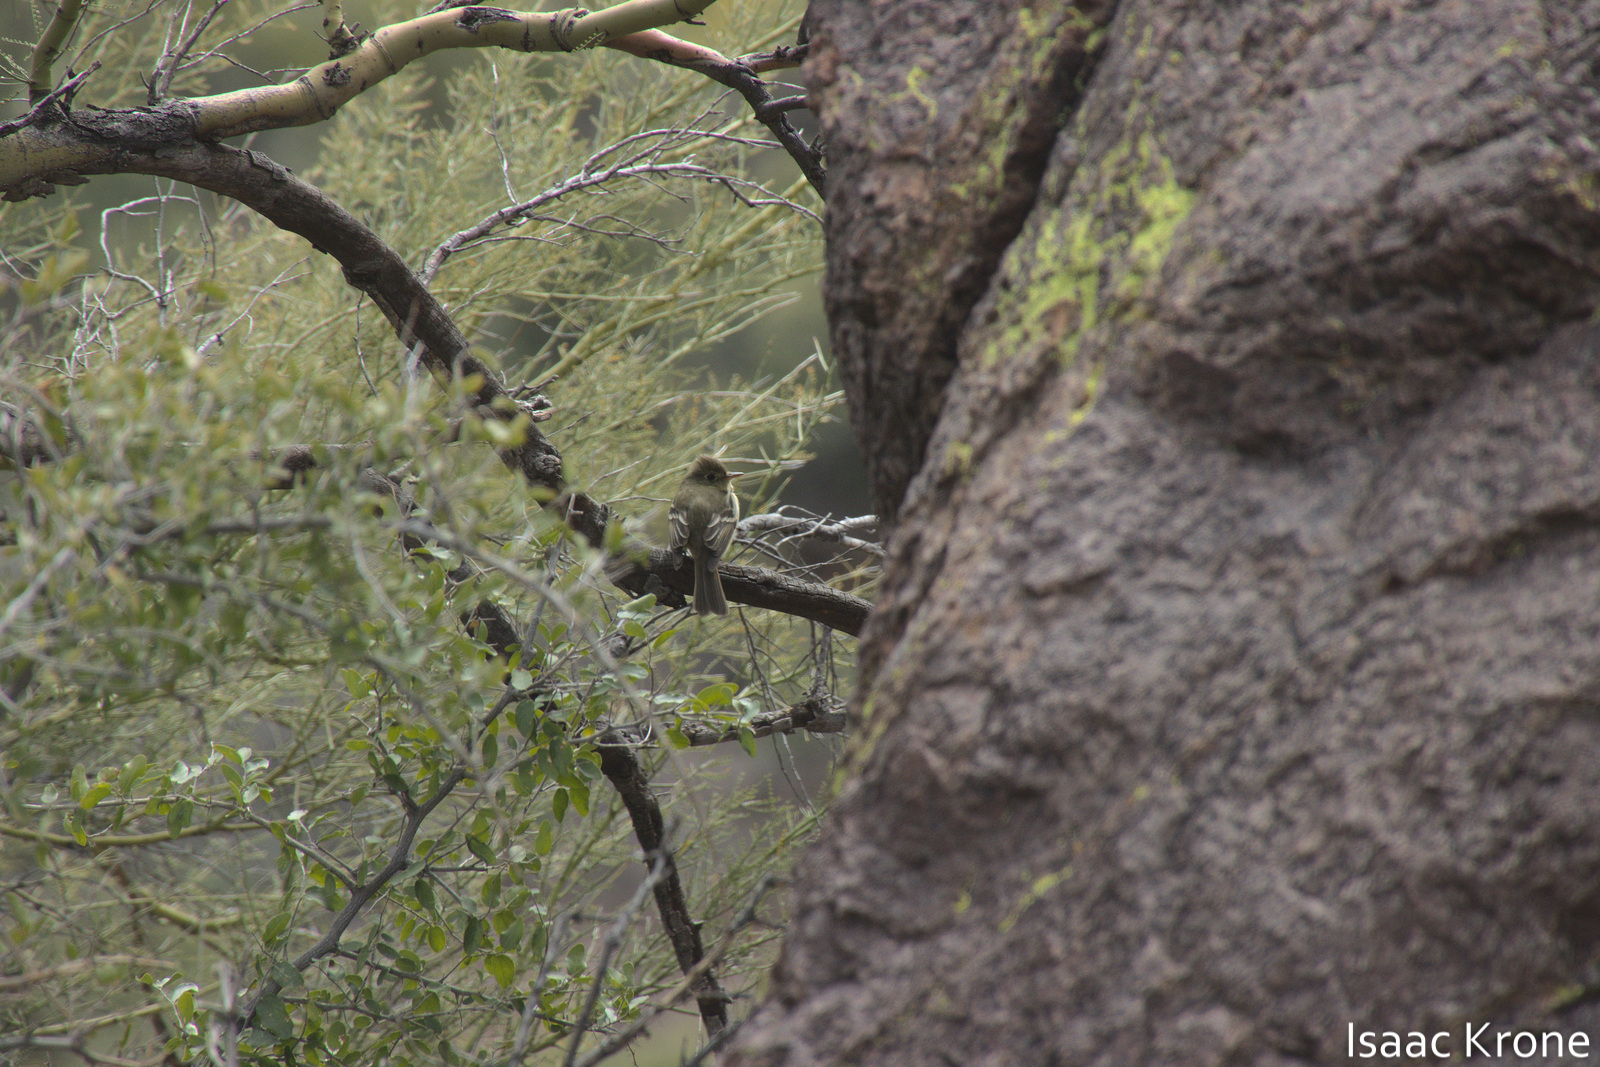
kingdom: Animalia
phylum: Chordata
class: Aves
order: Passeriformes
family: Tyrannidae
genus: Empidonax
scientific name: Empidonax difficilis
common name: Pacific-slope flycatcher
